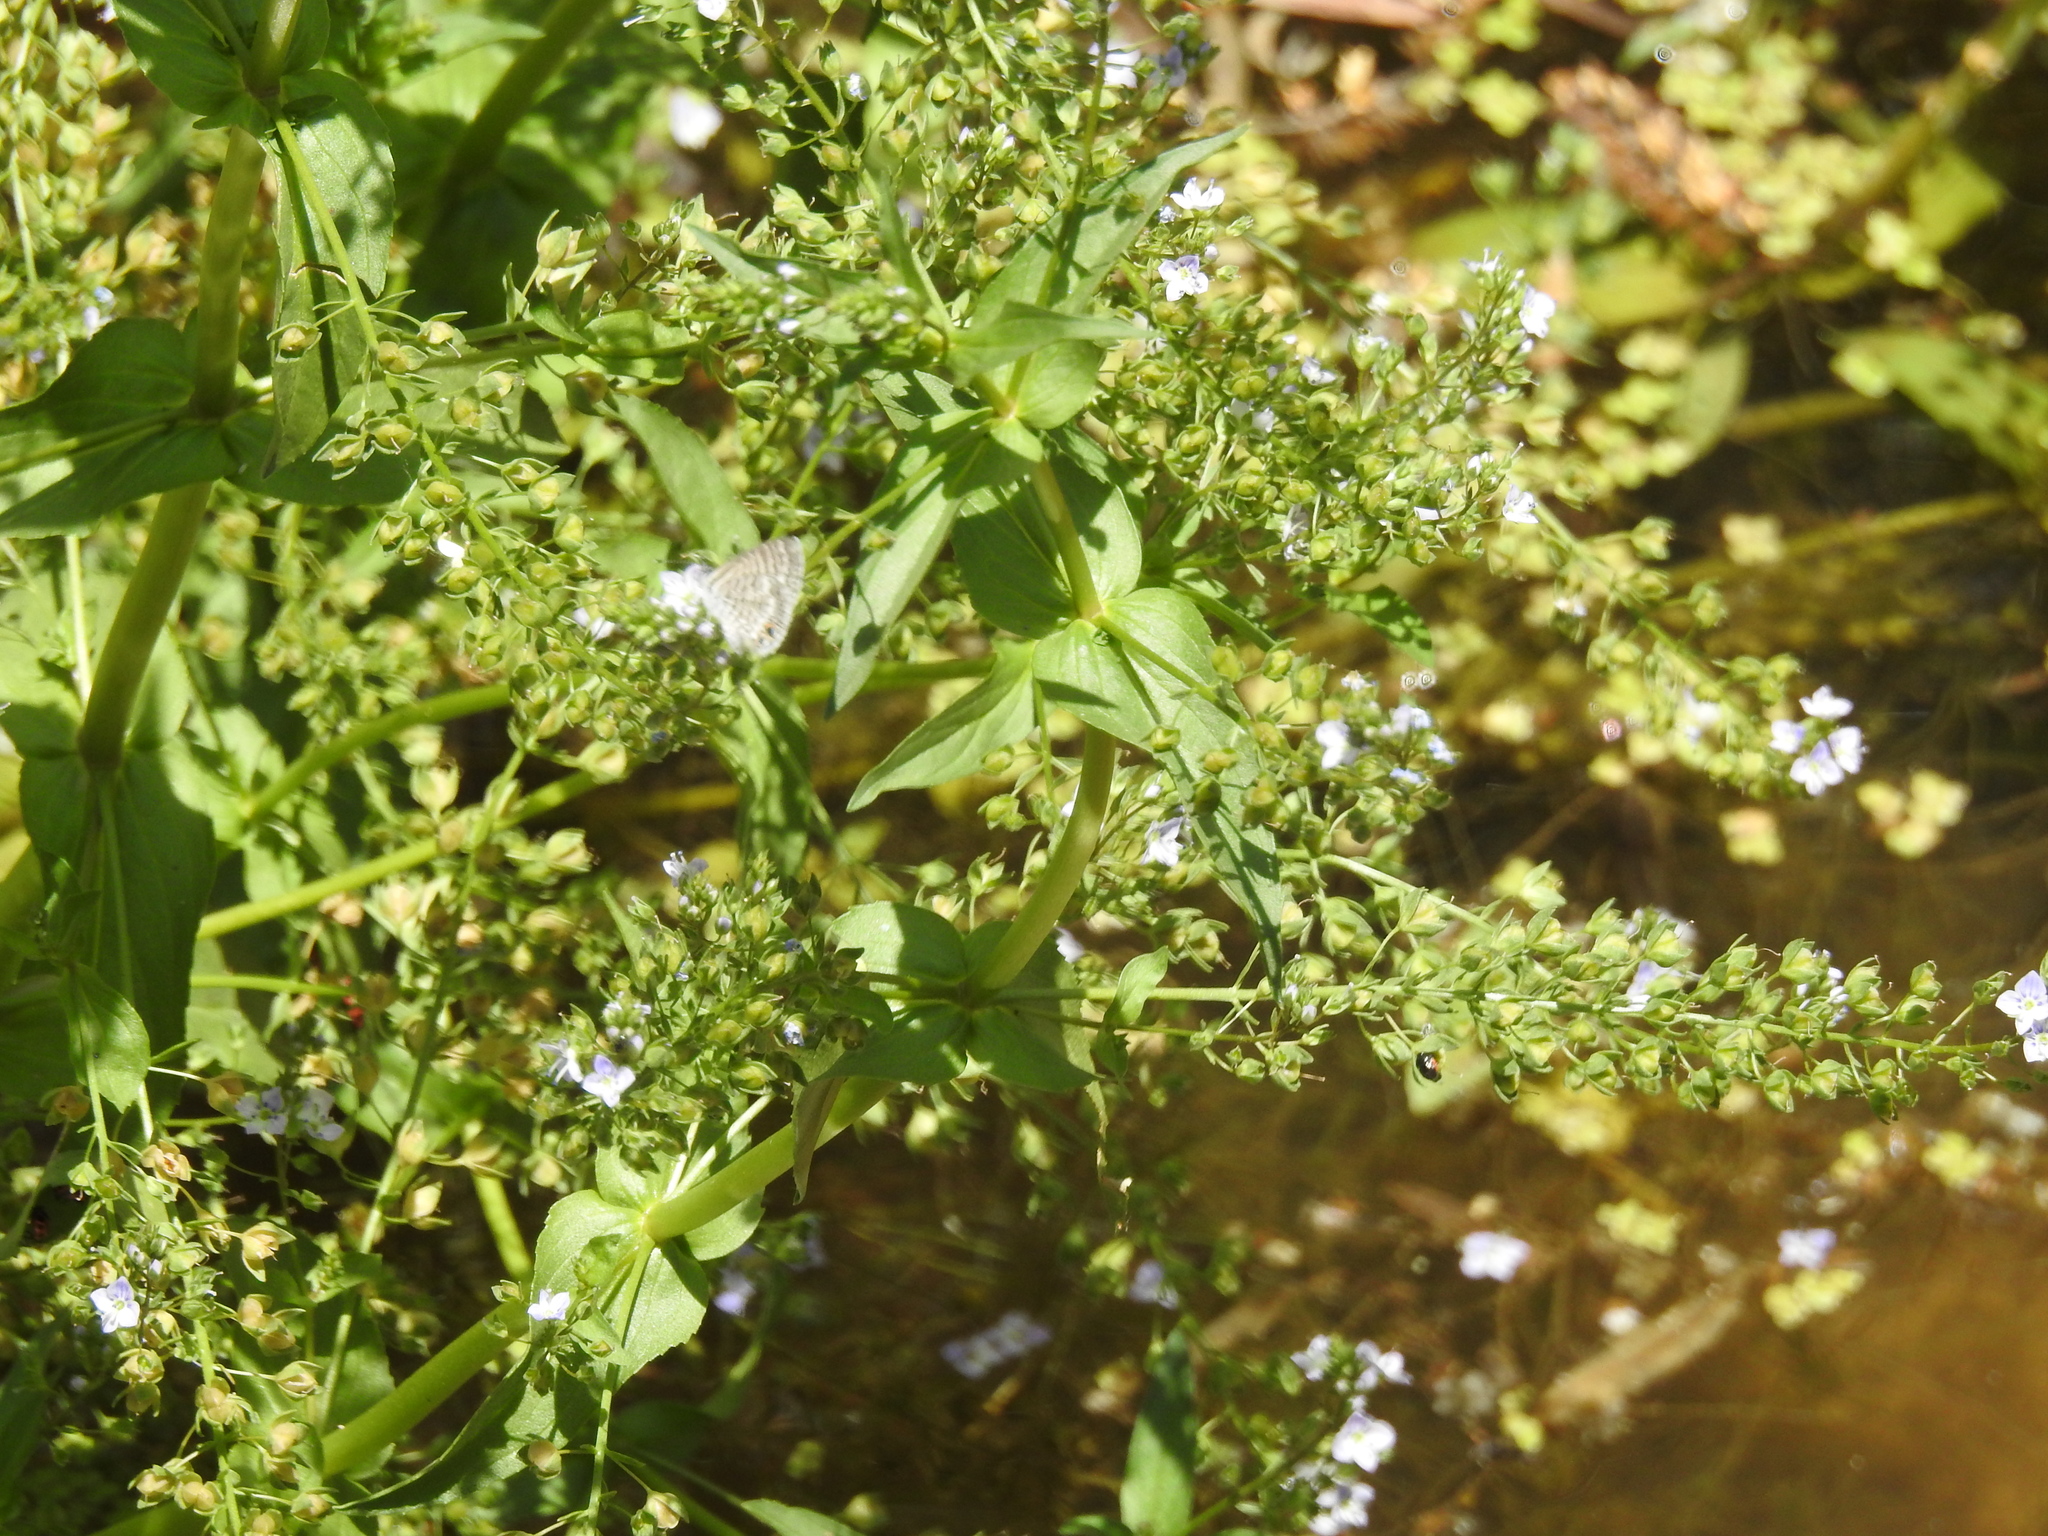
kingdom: Plantae
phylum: Tracheophyta
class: Magnoliopsida
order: Lamiales
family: Plantaginaceae
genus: Veronica
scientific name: Veronica anagallis-aquatica
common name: Water speedwell
